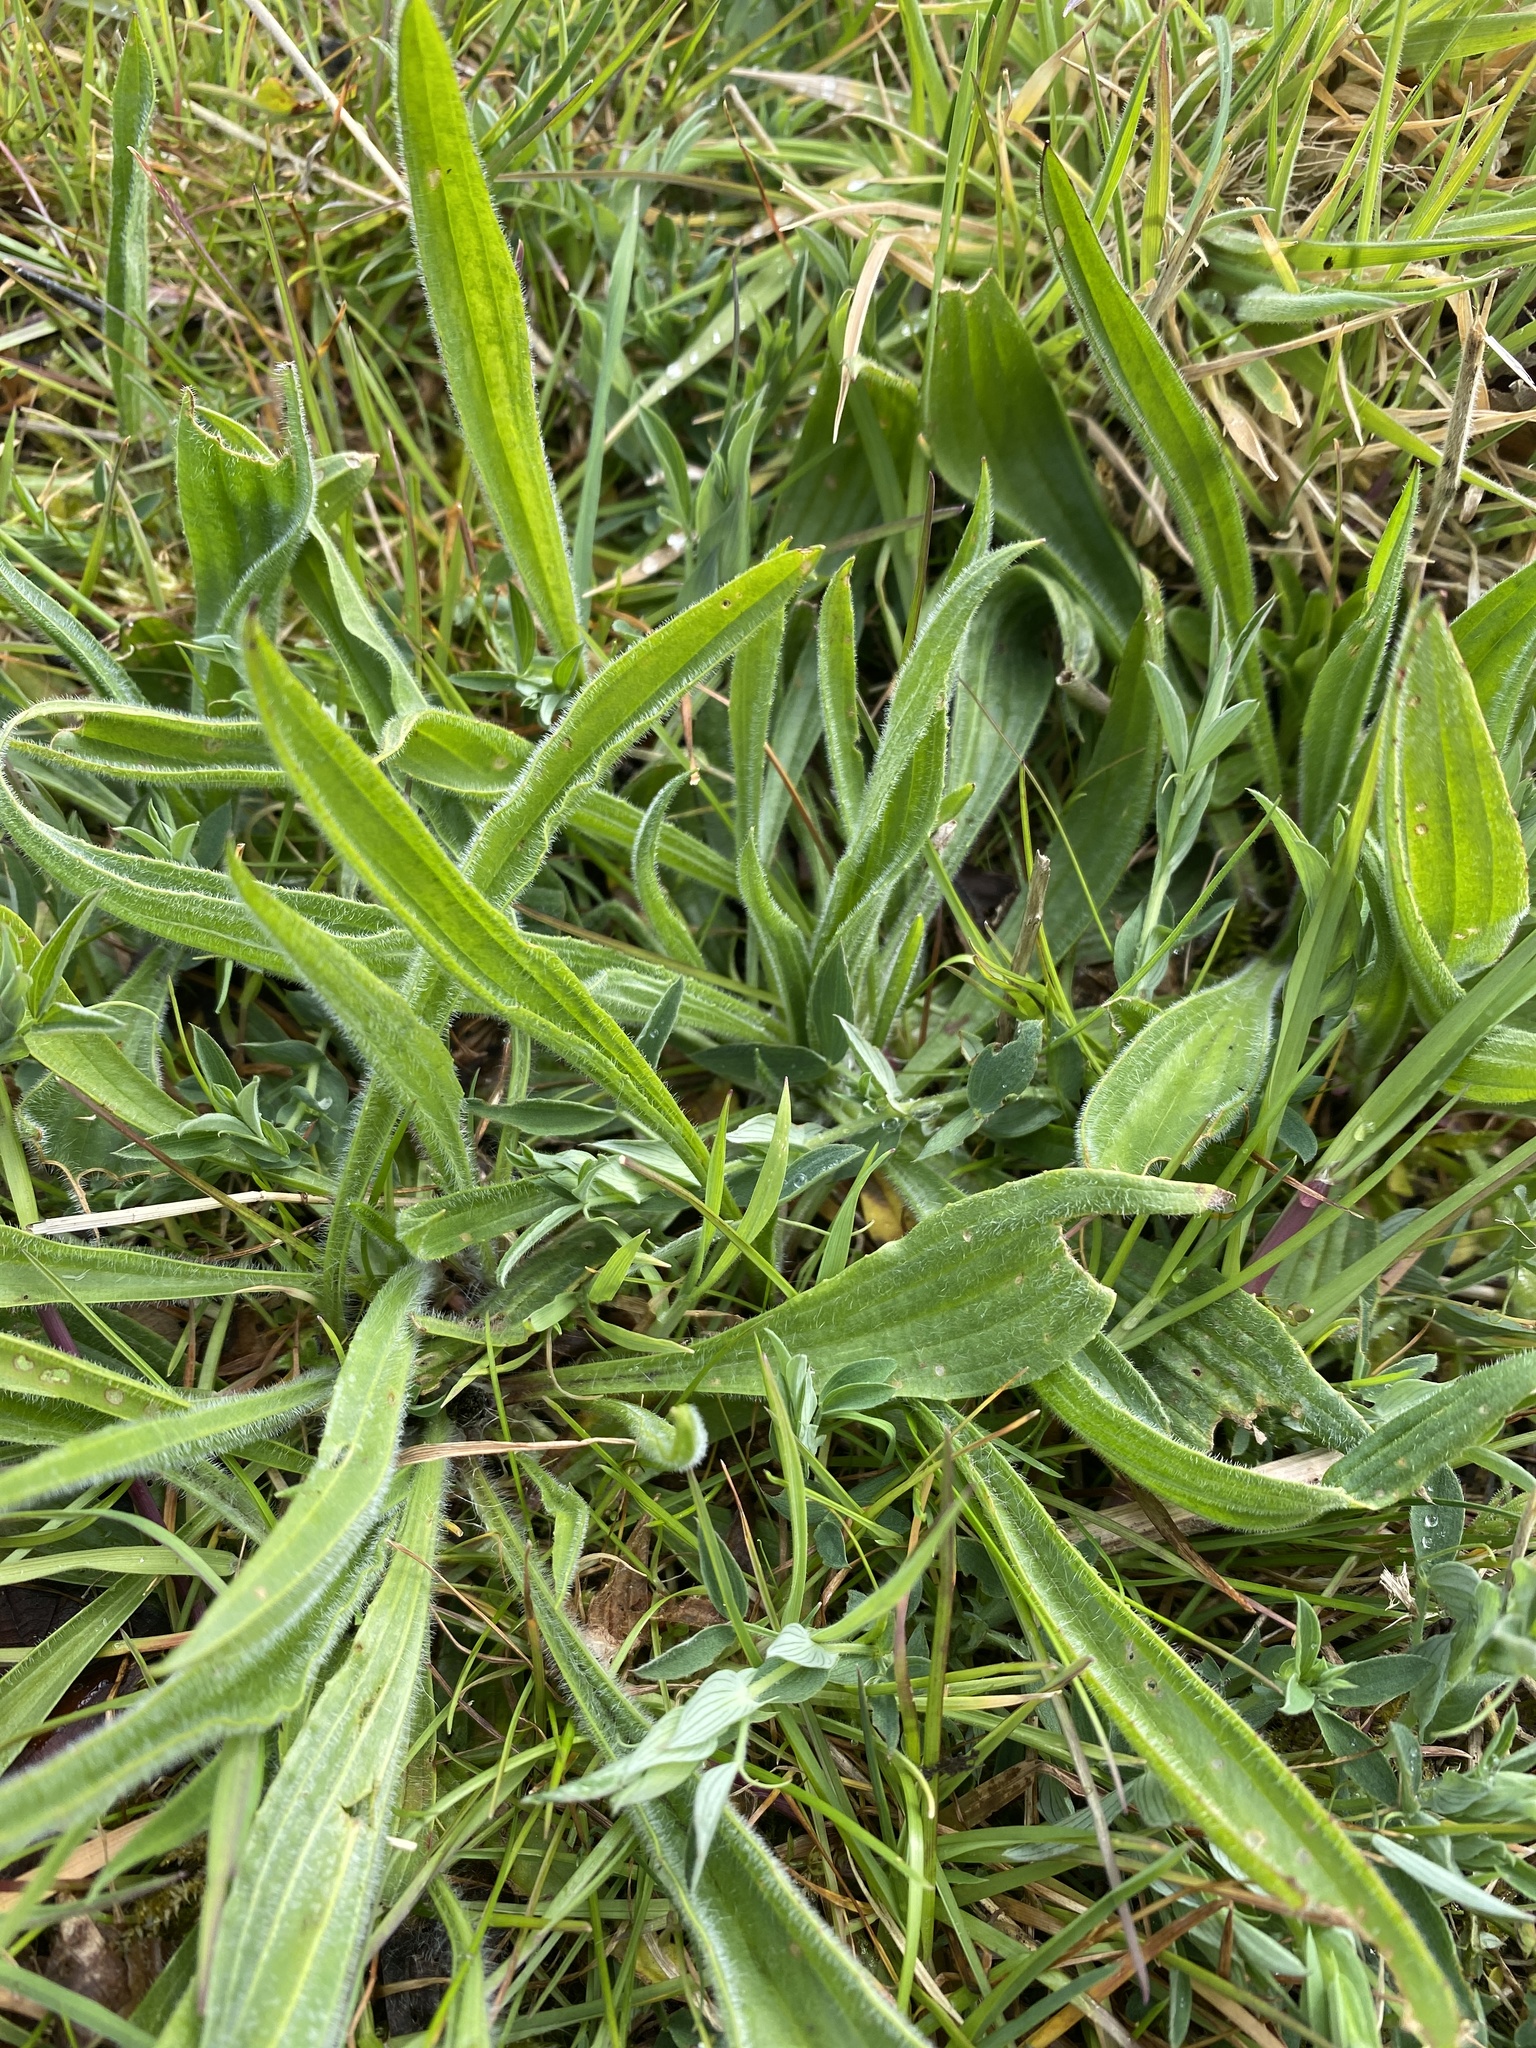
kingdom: Plantae
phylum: Tracheophyta
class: Magnoliopsida
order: Lamiales
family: Plantaginaceae
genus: Plantago
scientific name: Plantago lanceolata
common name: Ribwort plantain
